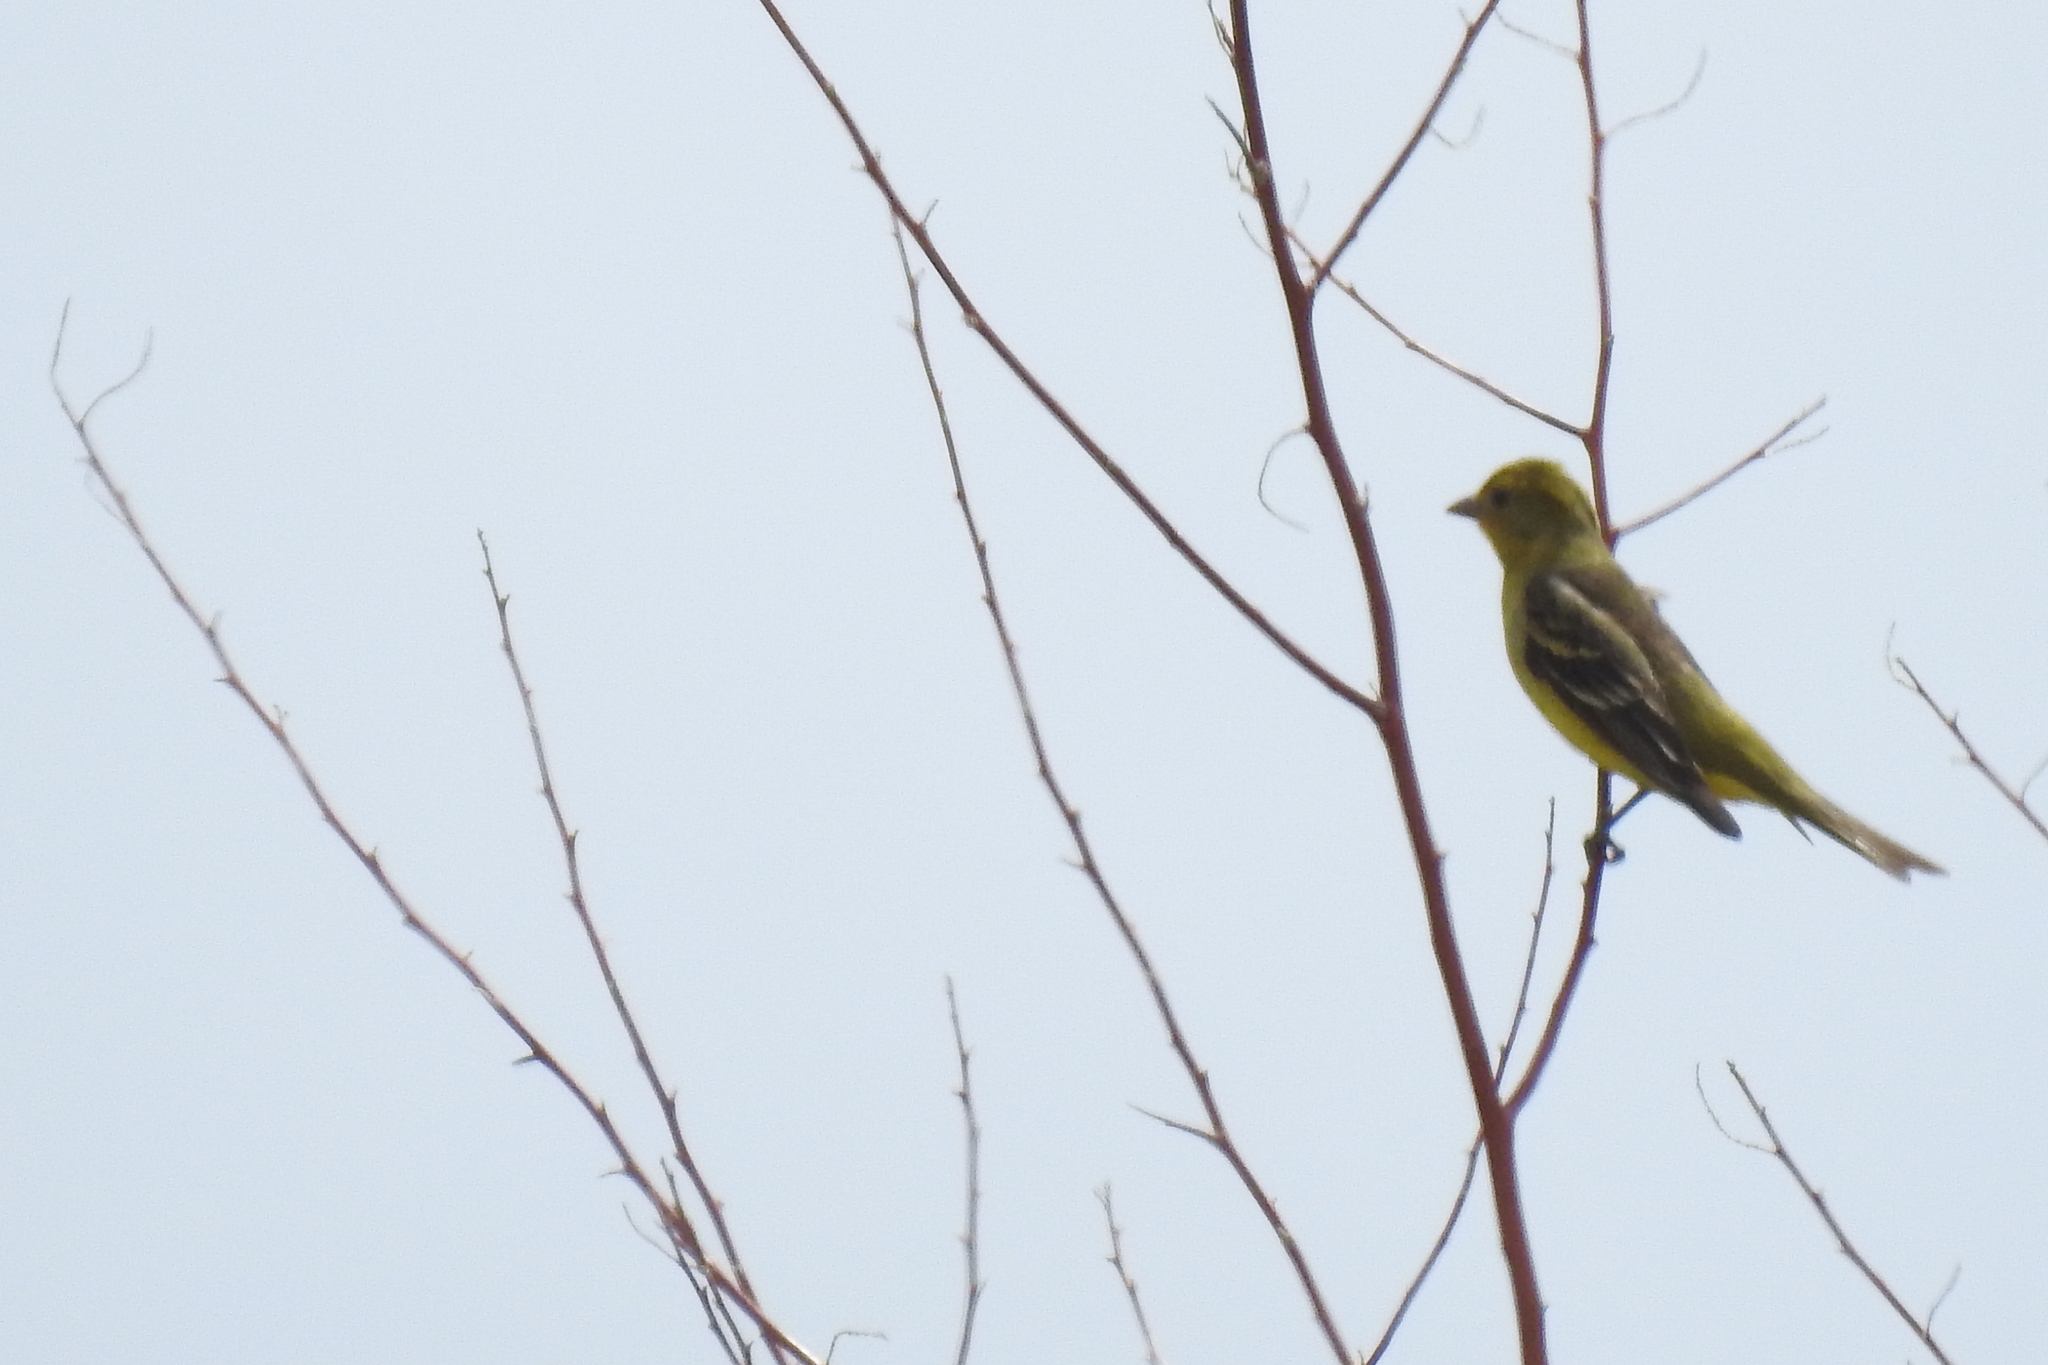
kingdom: Animalia
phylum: Chordata
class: Aves
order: Passeriformes
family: Cardinalidae
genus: Piranga
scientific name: Piranga ludoviciana
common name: Western tanager
